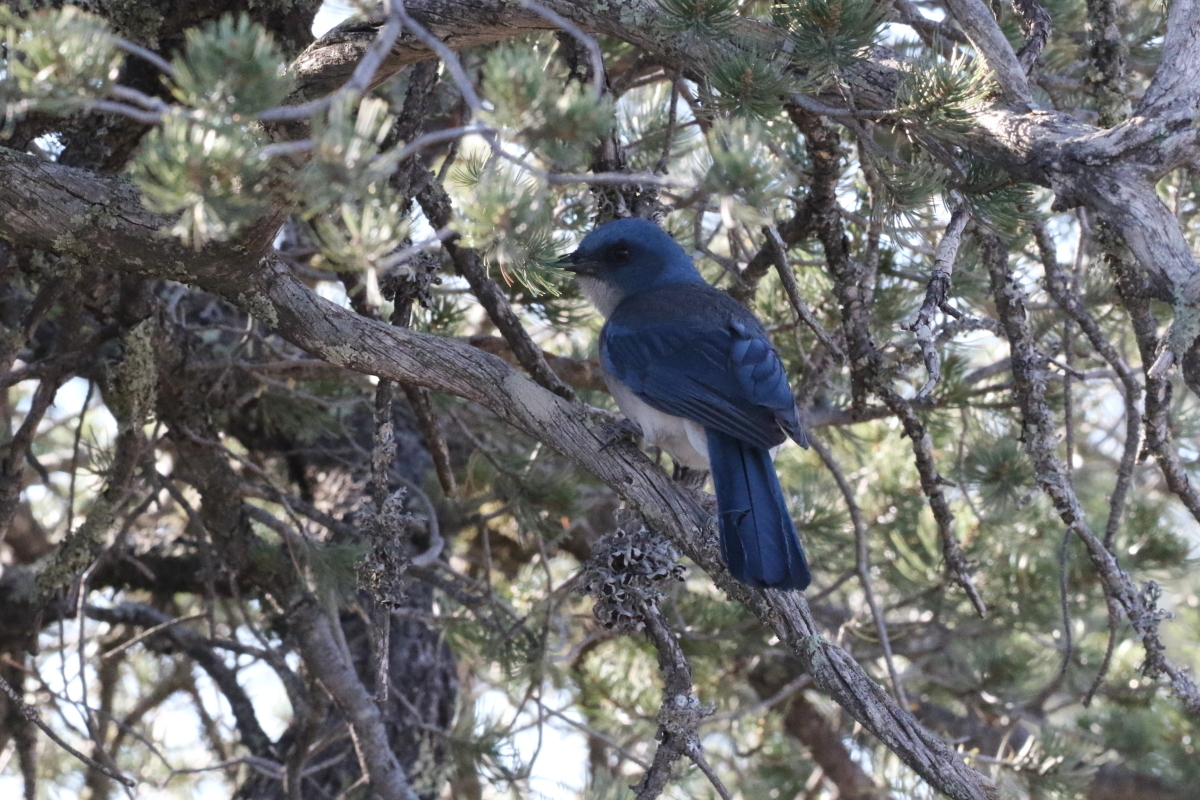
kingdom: Animalia
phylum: Chordata
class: Aves
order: Passeriformes
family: Corvidae
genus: Aphelocoma
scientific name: Aphelocoma wollweberi
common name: Mexican jay
